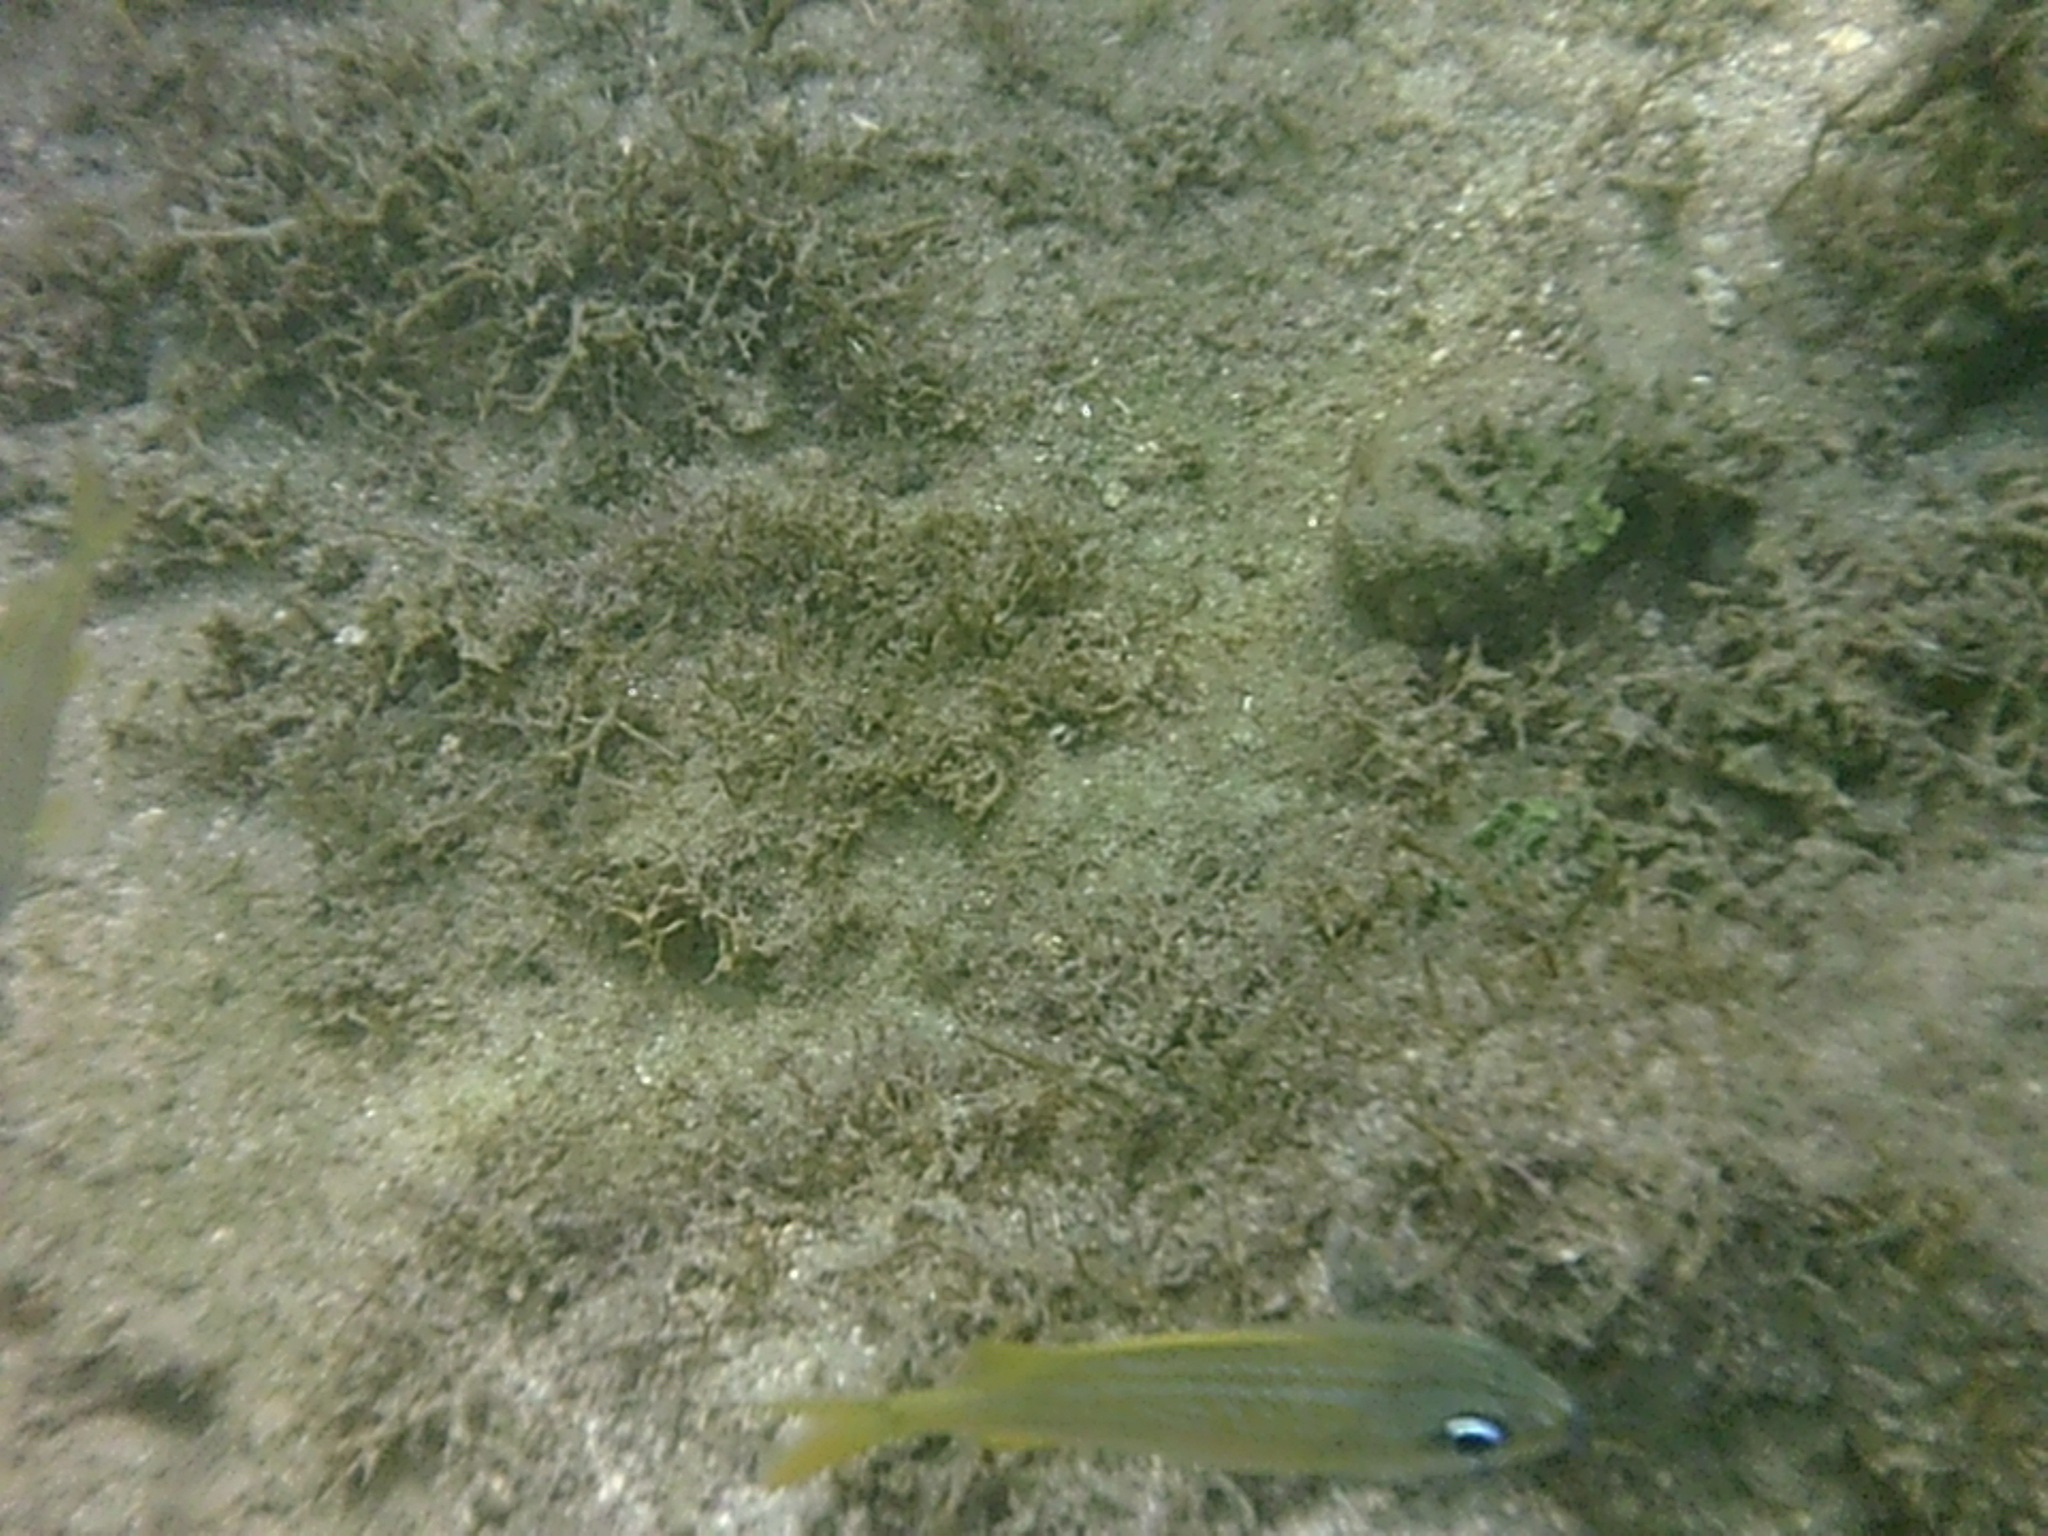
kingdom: Animalia
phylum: Chordata
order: Perciformes
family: Haemulidae
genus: Haemulon
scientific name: Haemulon flavolineatum
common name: French grunt
